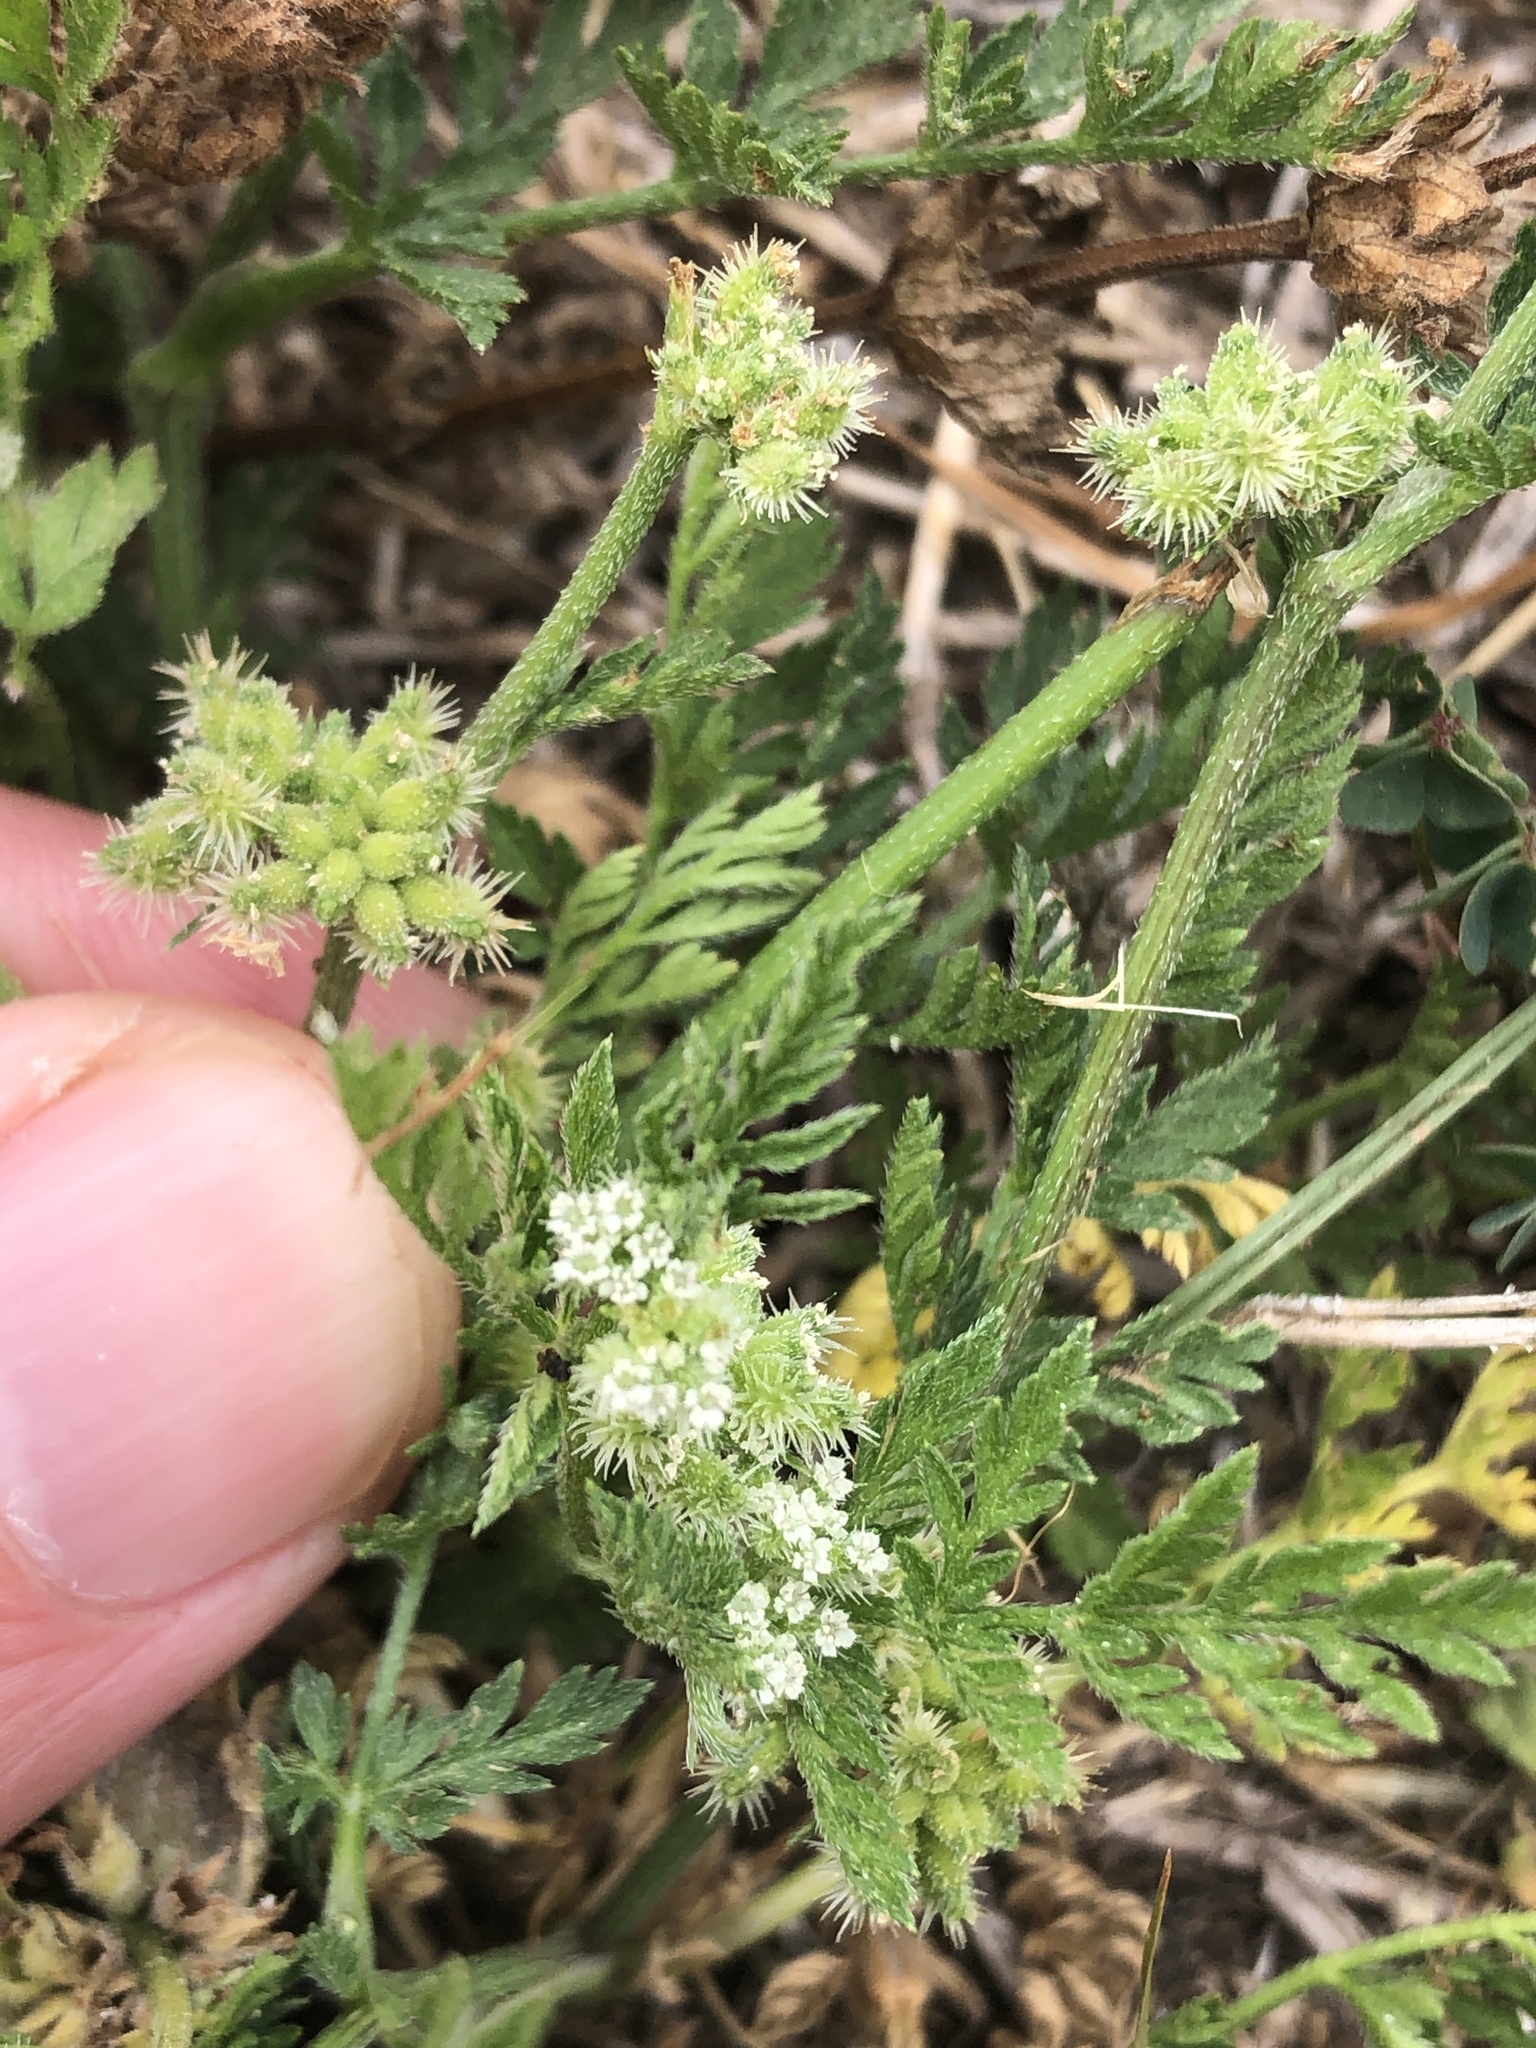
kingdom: Plantae
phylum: Tracheophyta
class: Magnoliopsida
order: Apiales
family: Apiaceae
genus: Torilis
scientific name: Torilis nodosa
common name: Knotted hedge-parsley
